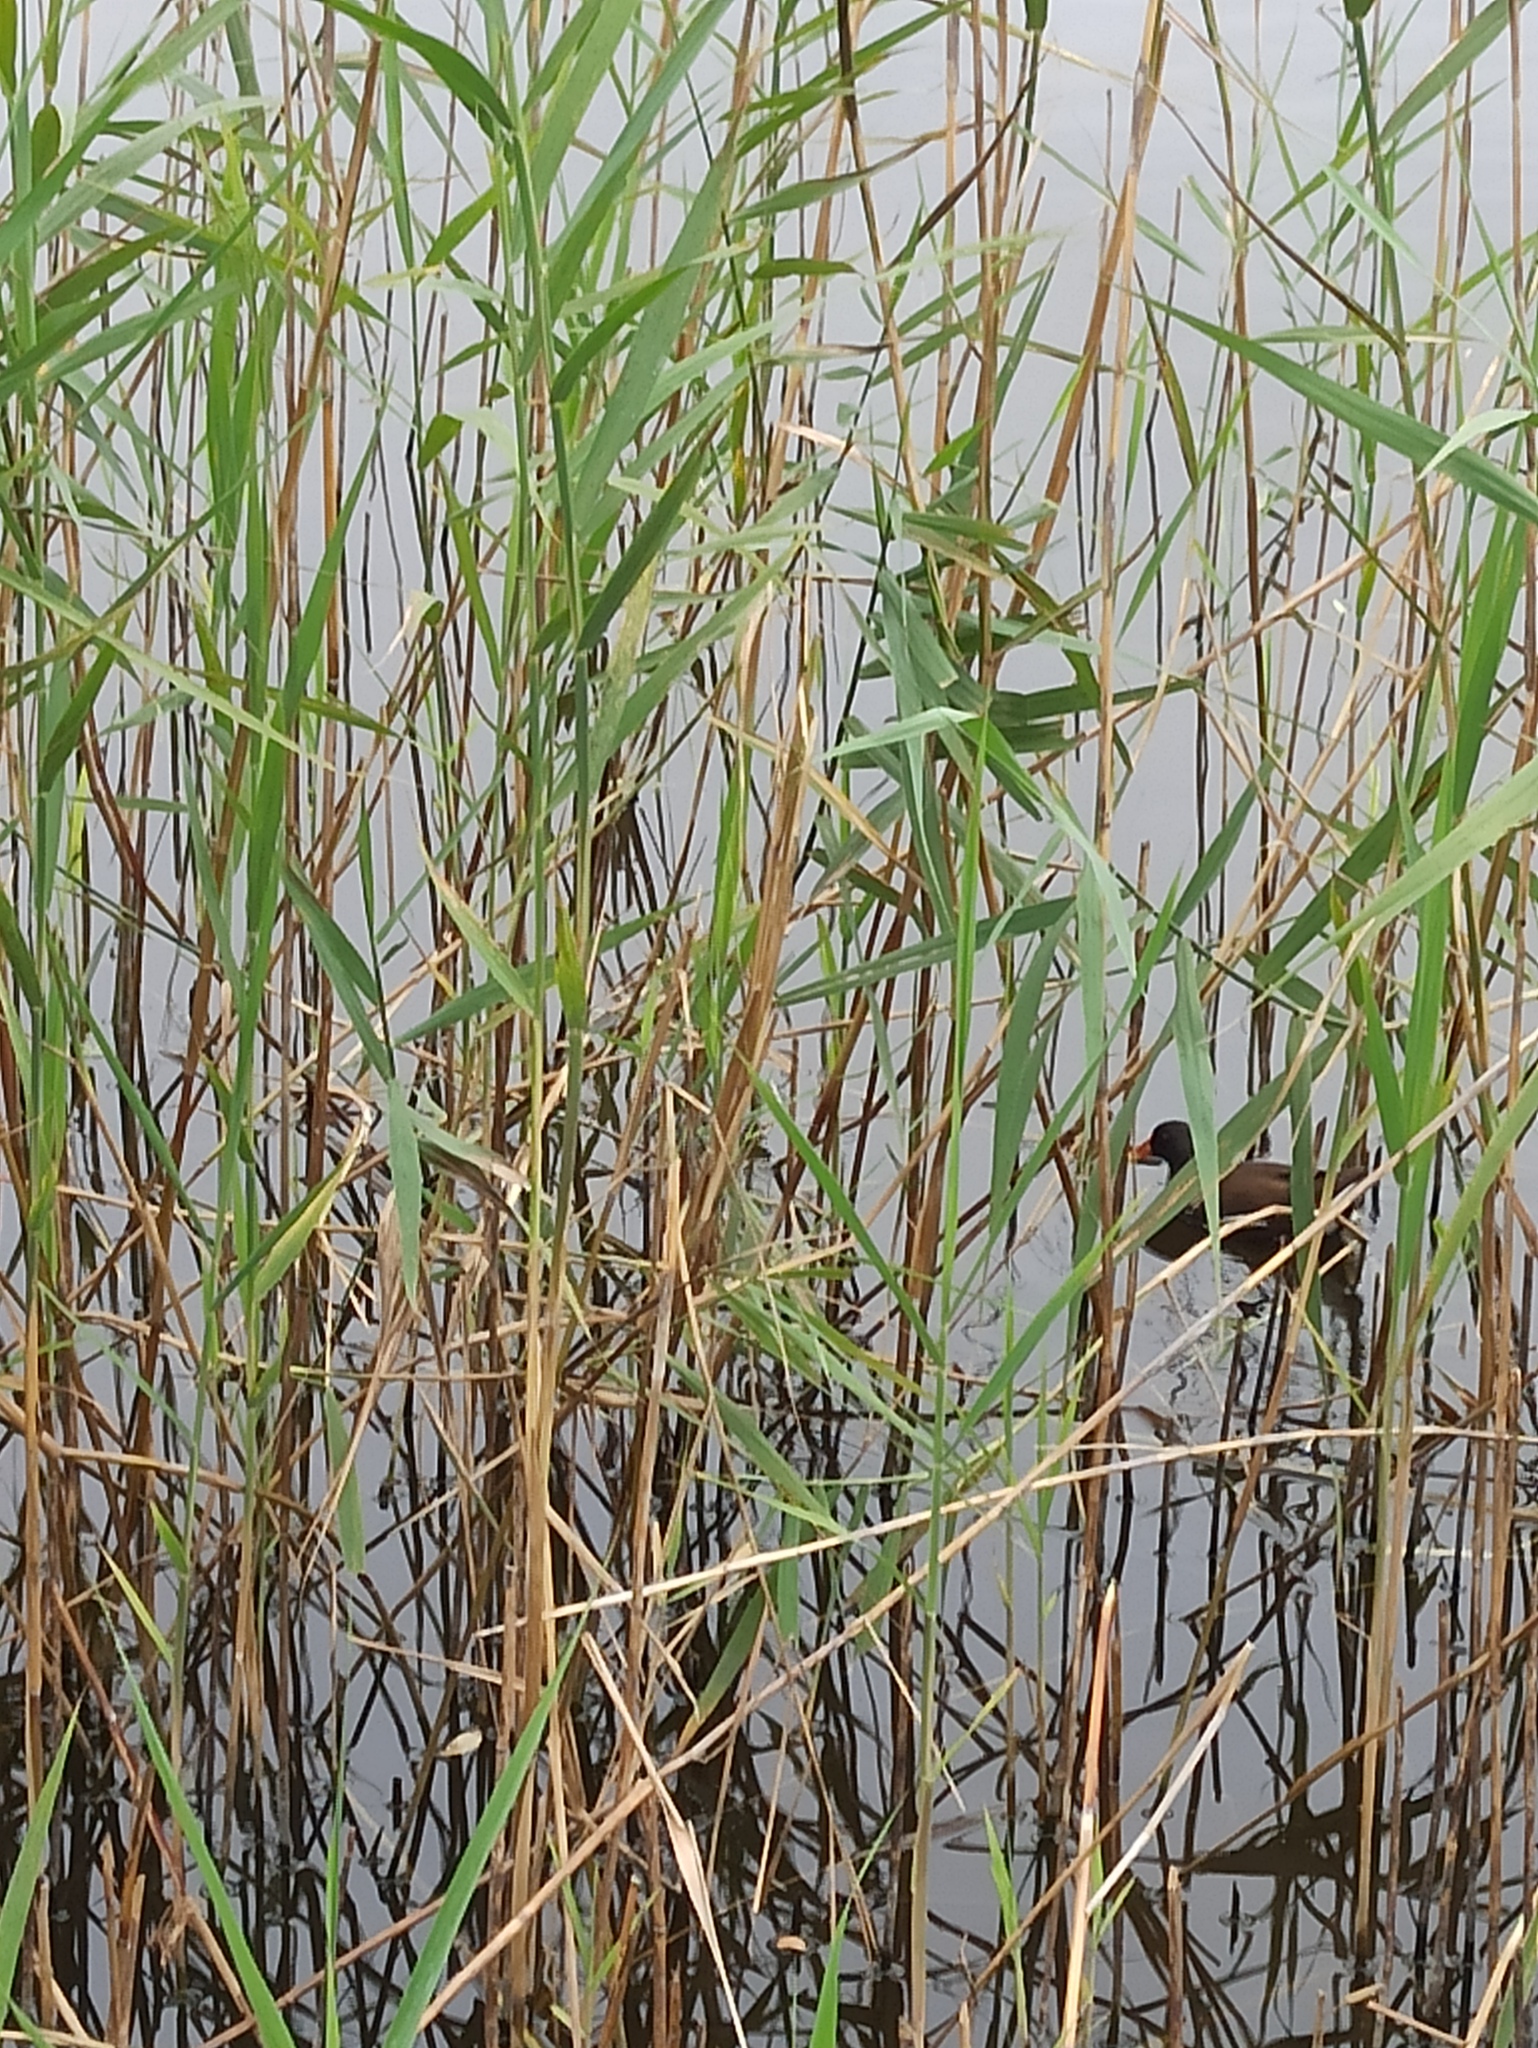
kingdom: Animalia
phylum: Chordata
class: Aves
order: Gruiformes
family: Rallidae
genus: Gallinula
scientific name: Gallinula chloropus
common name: Common moorhen
